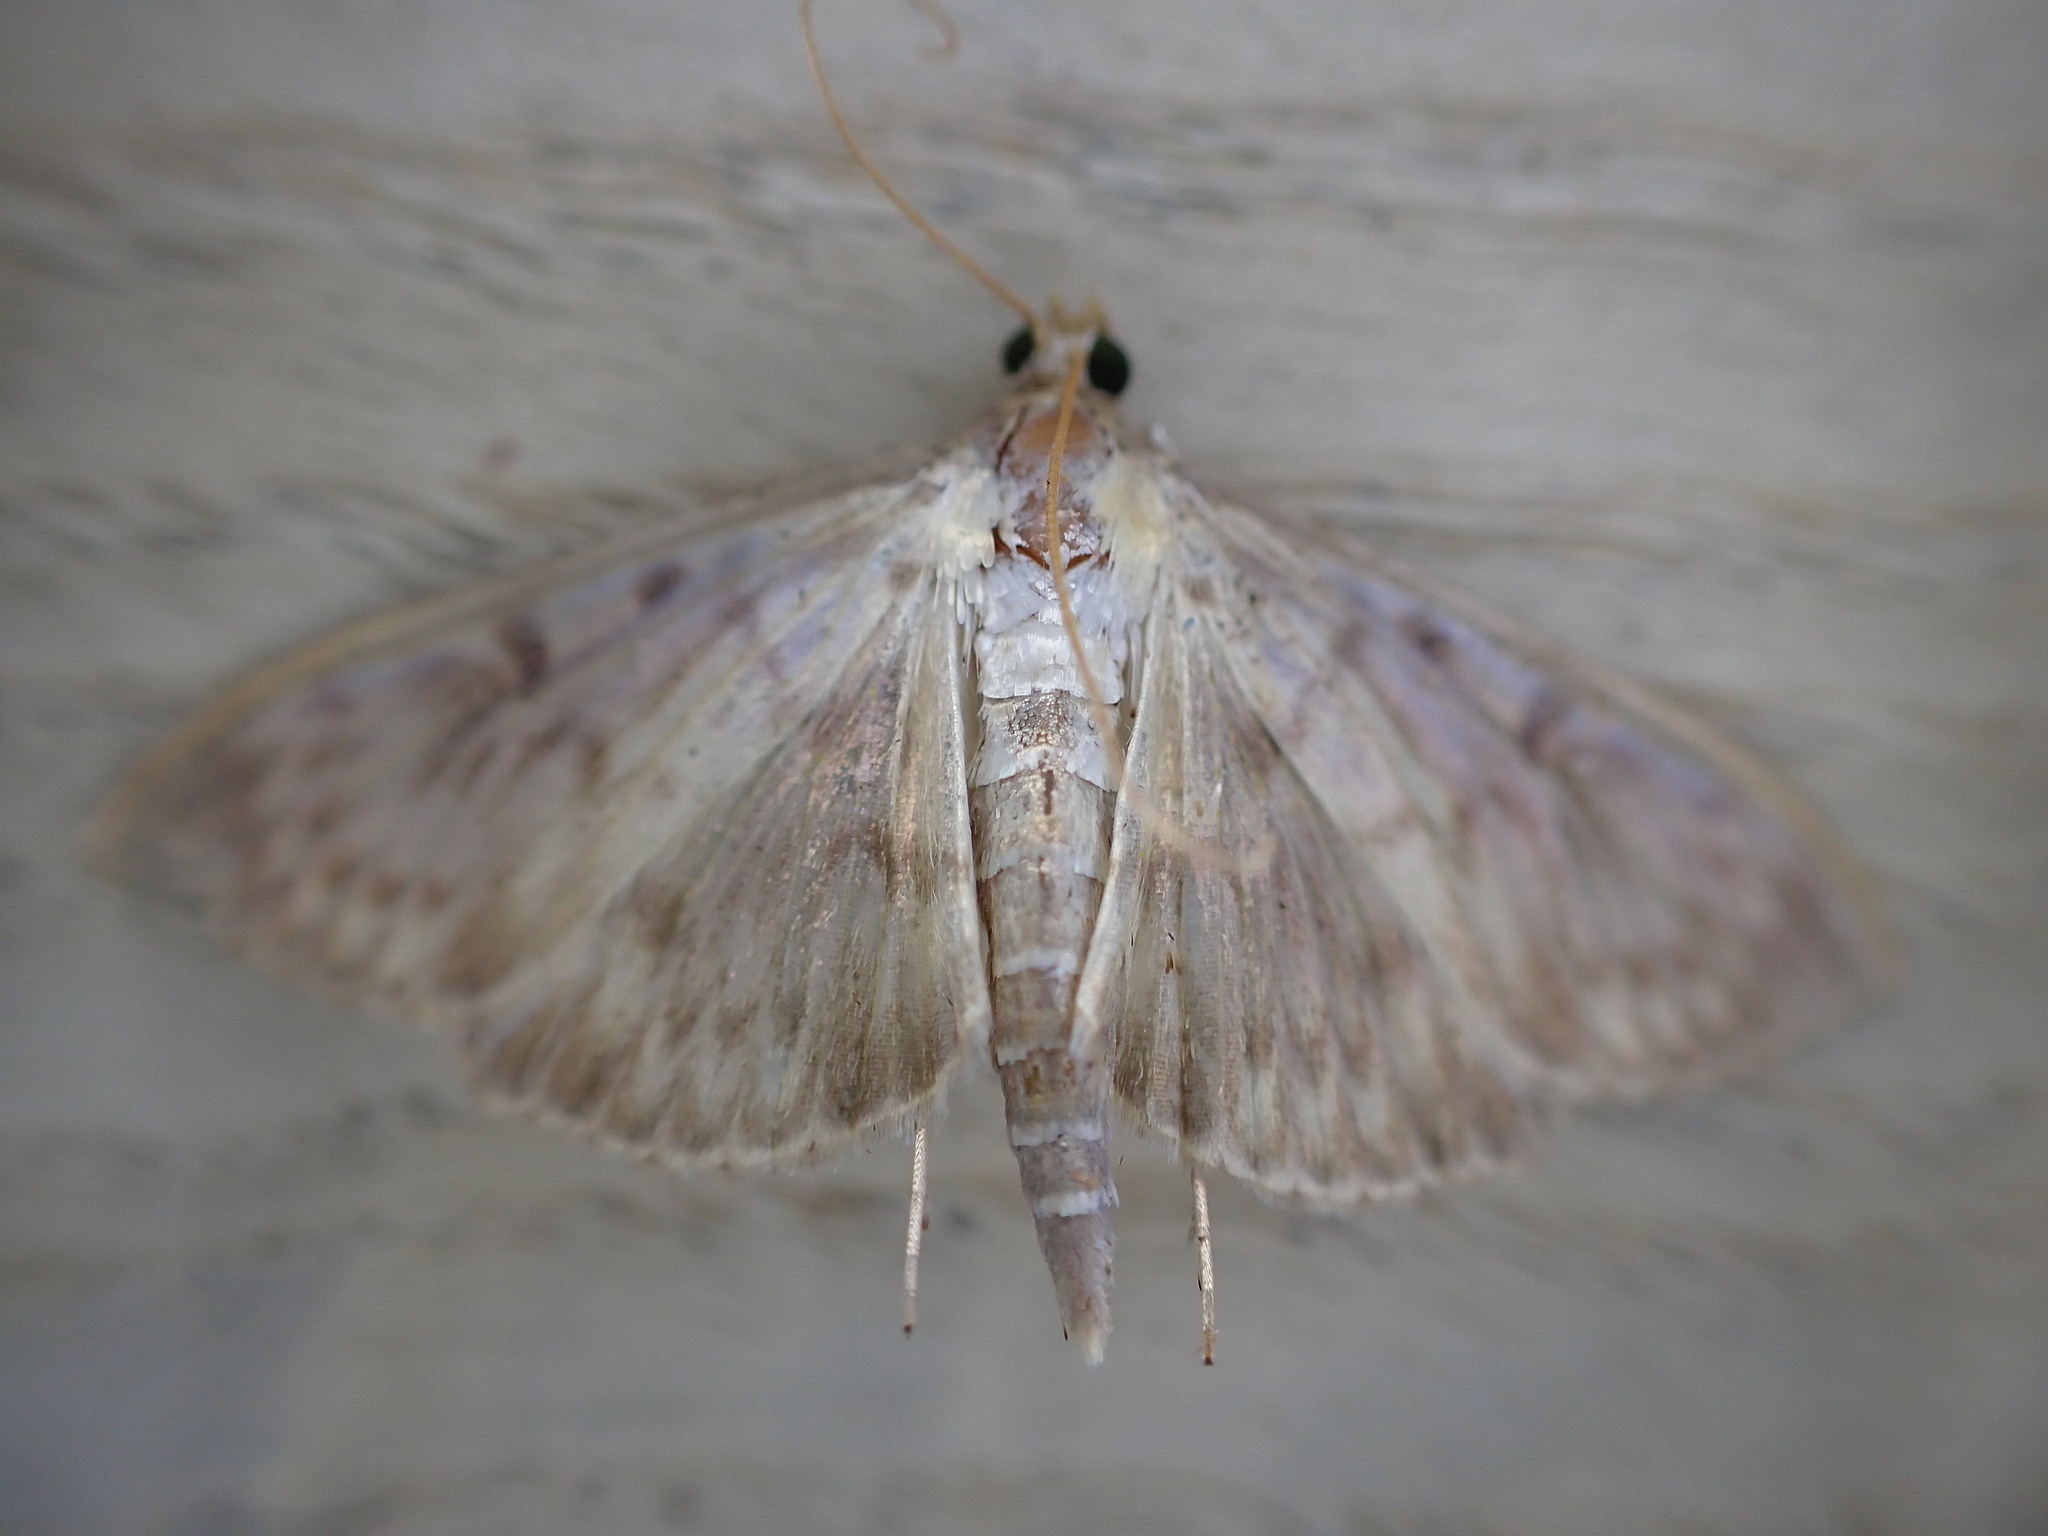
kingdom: Animalia
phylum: Arthropoda
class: Insecta
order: Lepidoptera
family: Crambidae
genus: Patania
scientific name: Patania ruralis
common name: Mother of pearl
